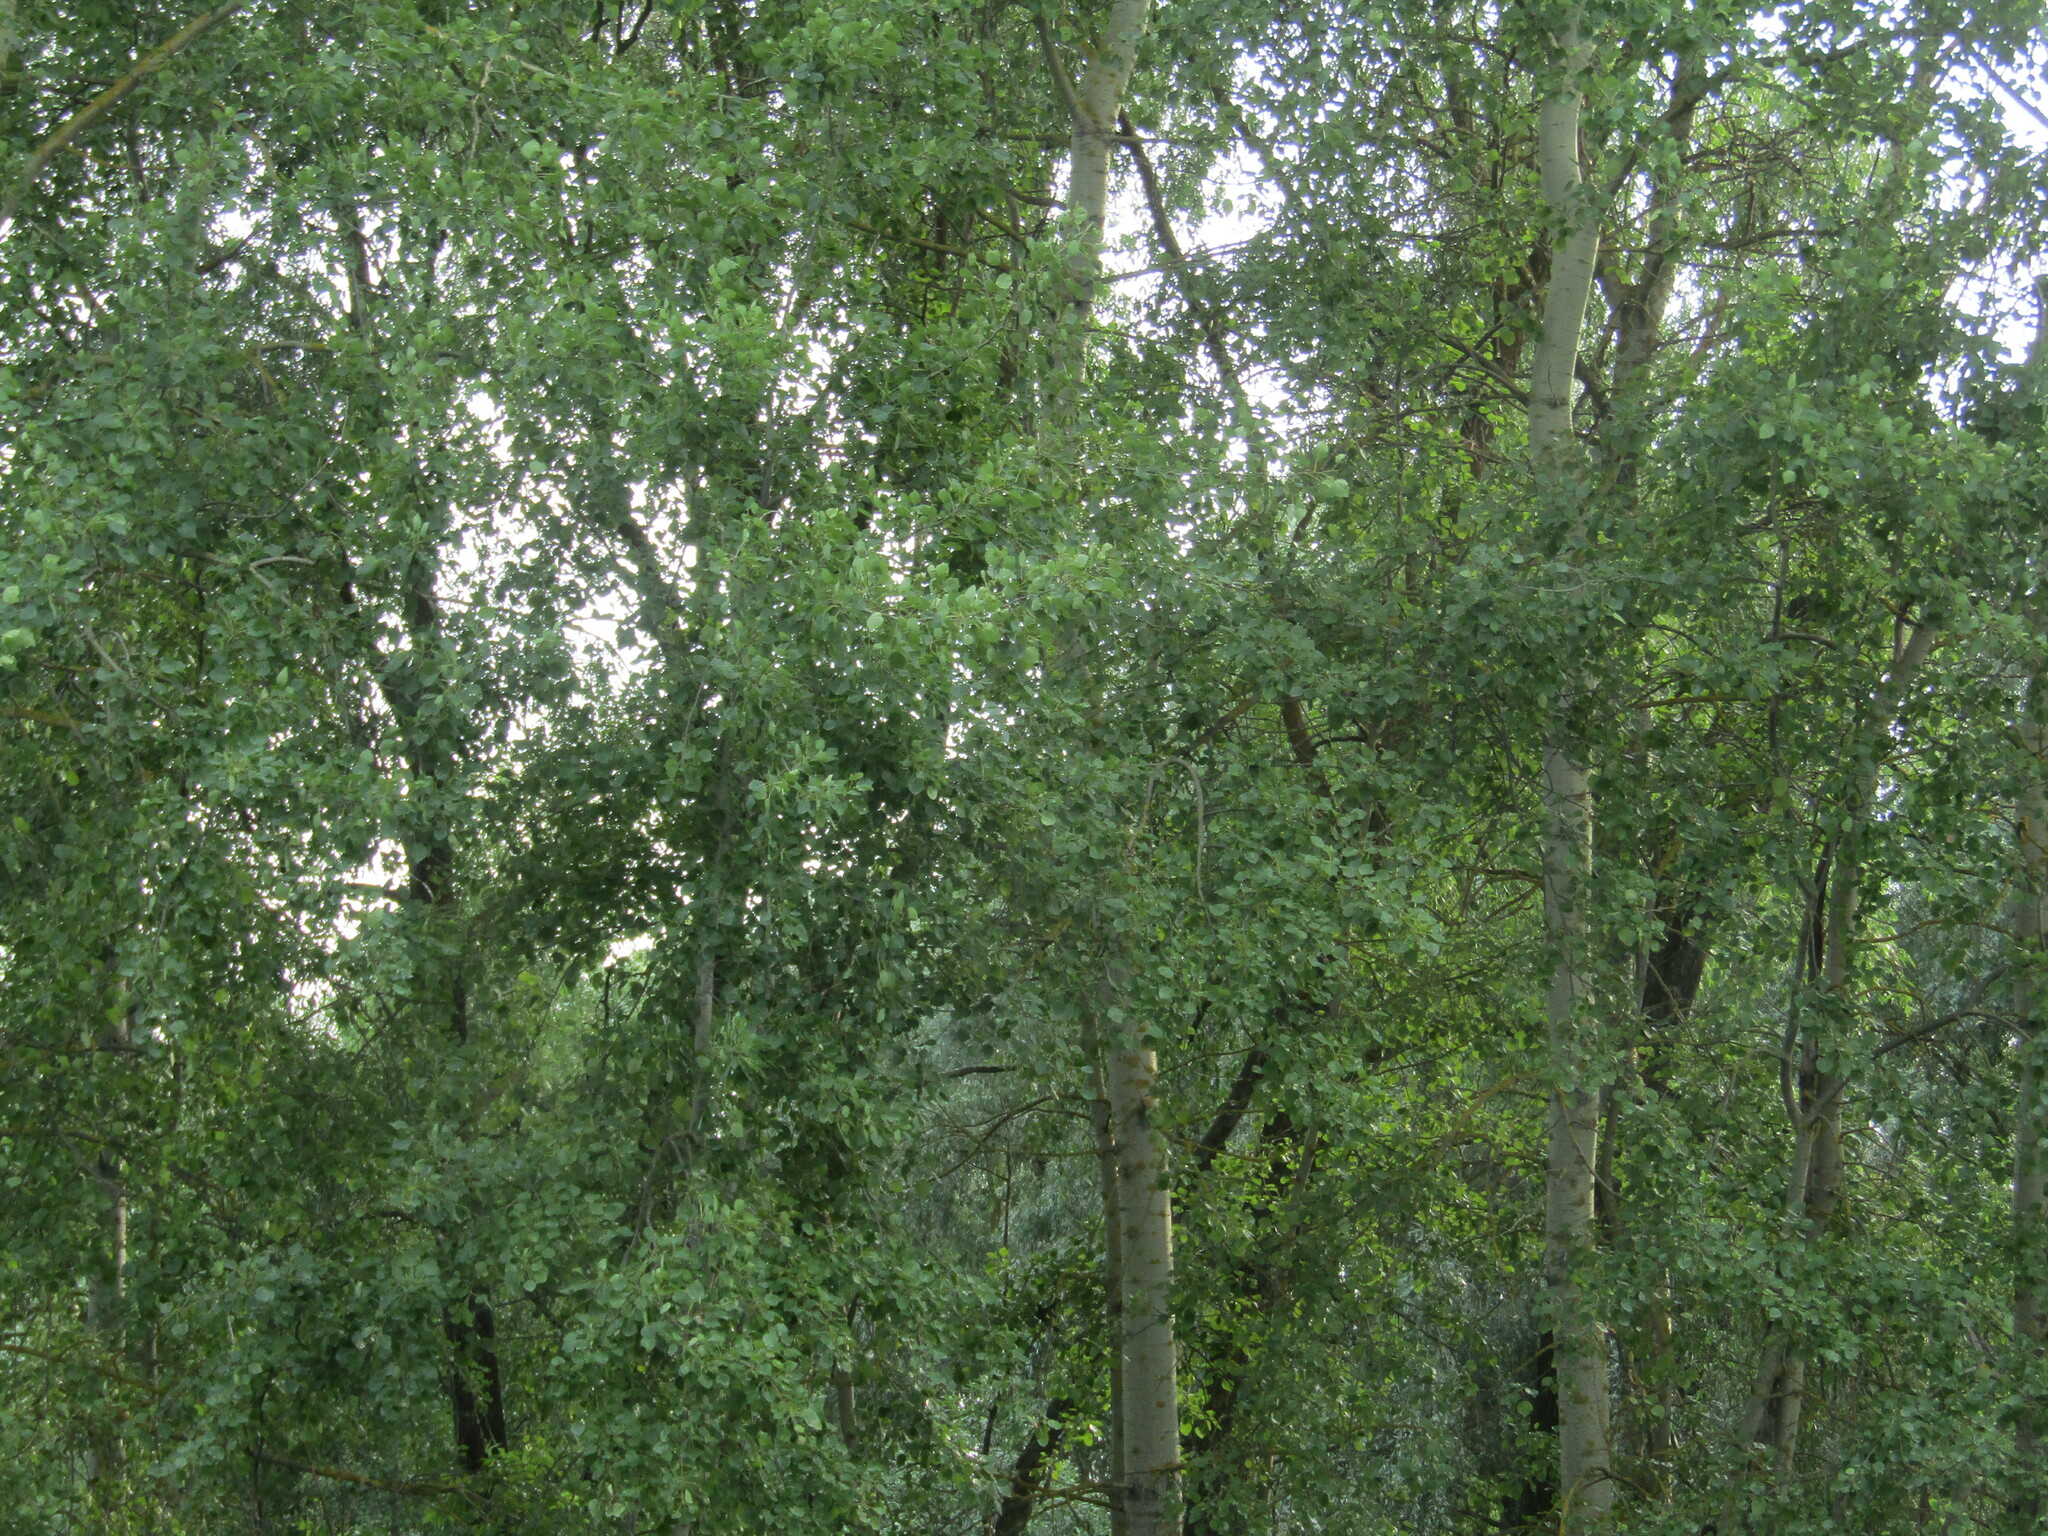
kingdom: Plantae
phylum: Tracheophyta
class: Magnoliopsida
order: Malpighiales
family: Salicaceae
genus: Populus
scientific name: Populus tremula
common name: European aspen
